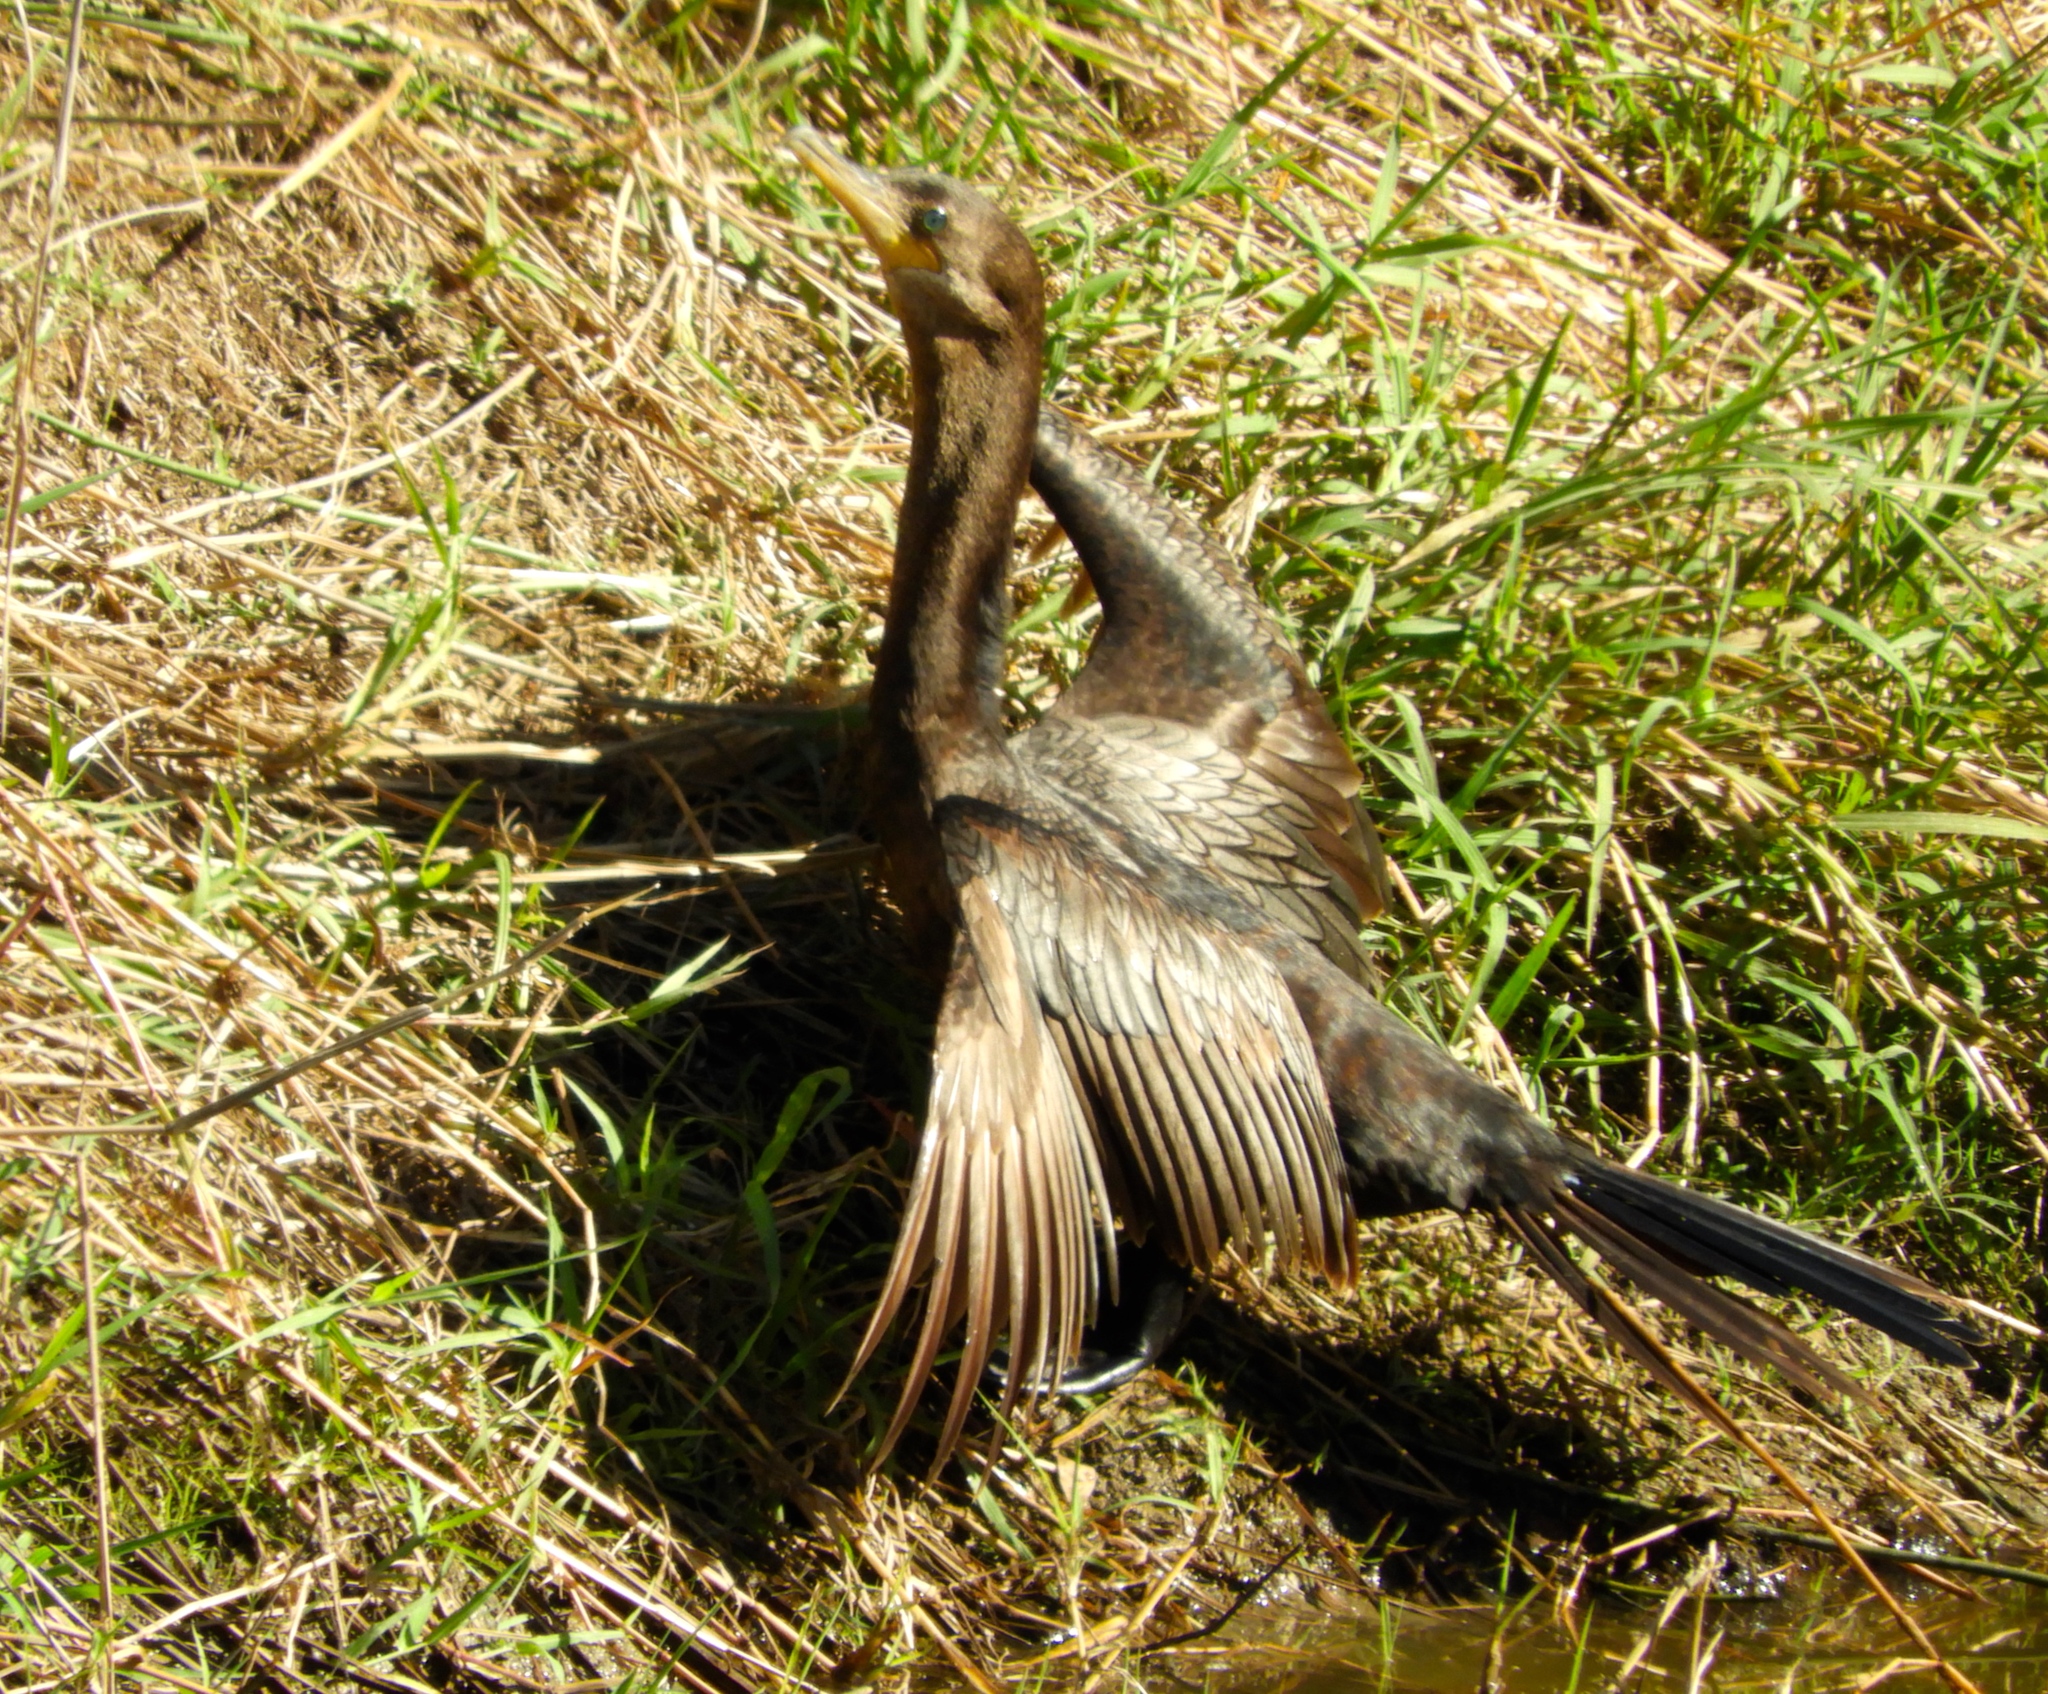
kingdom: Animalia
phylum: Chordata
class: Aves
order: Suliformes
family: Phalacrocoracidae
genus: Phalacrocorax
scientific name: Phalacrocorax brasilianus
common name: Neotropic cormorant
